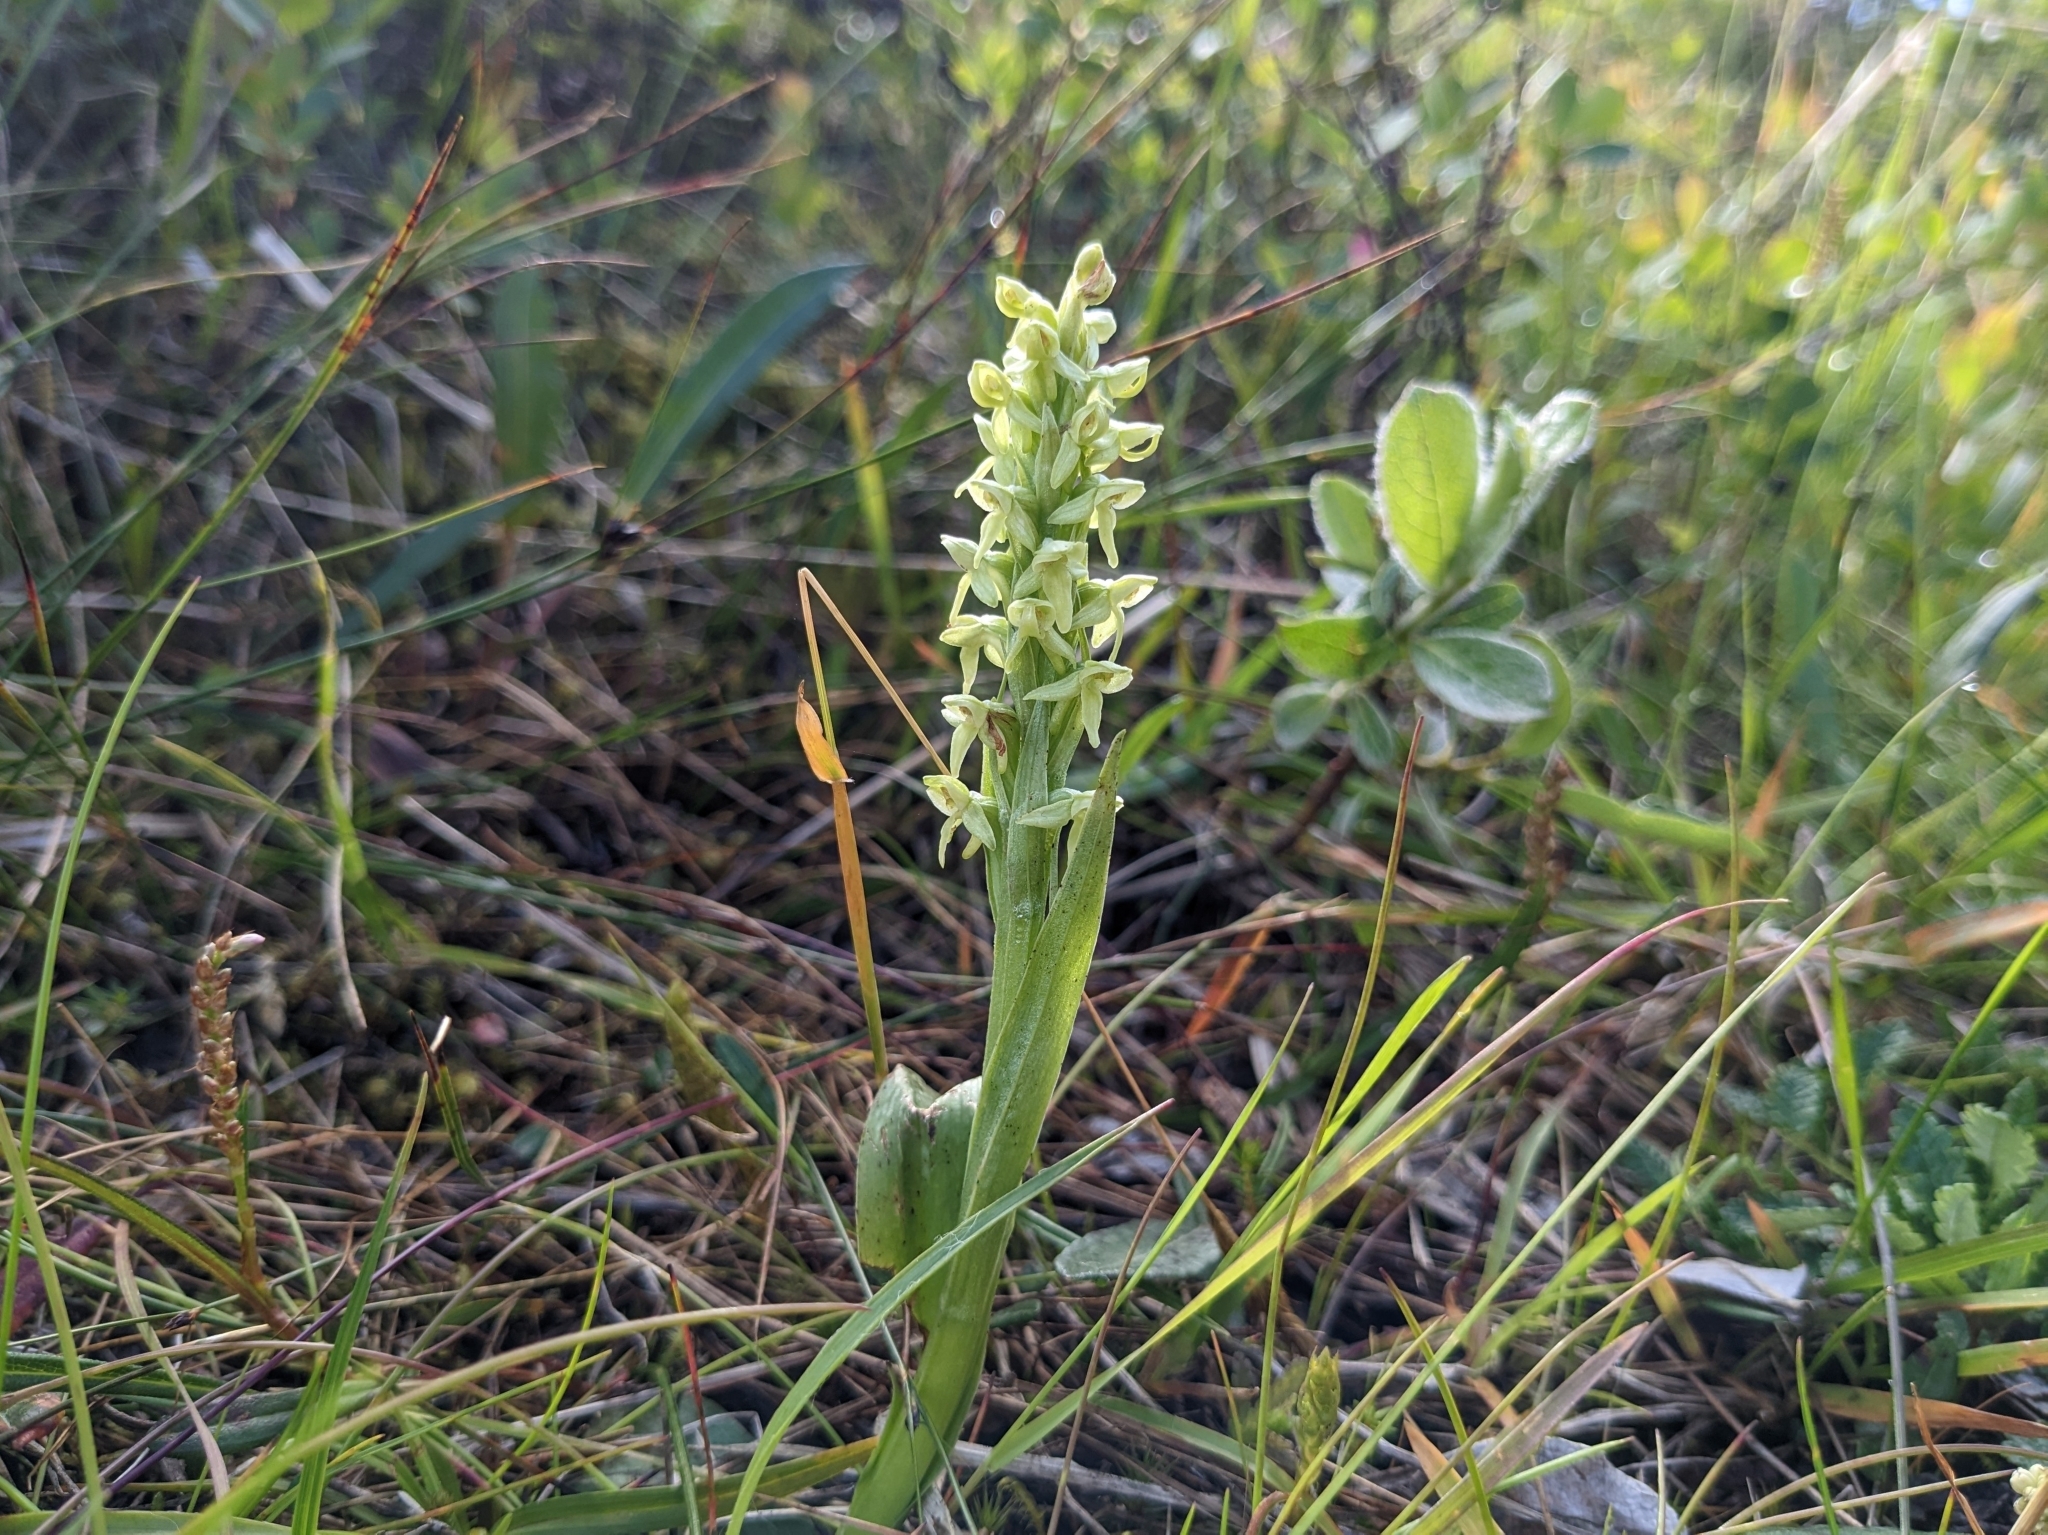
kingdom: Plantae
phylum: Tracheophyta
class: Liliopsida
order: Asparagales
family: Orchidaceae
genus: Platanthera
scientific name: Platanthera hyperborea
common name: Northern green orchid
